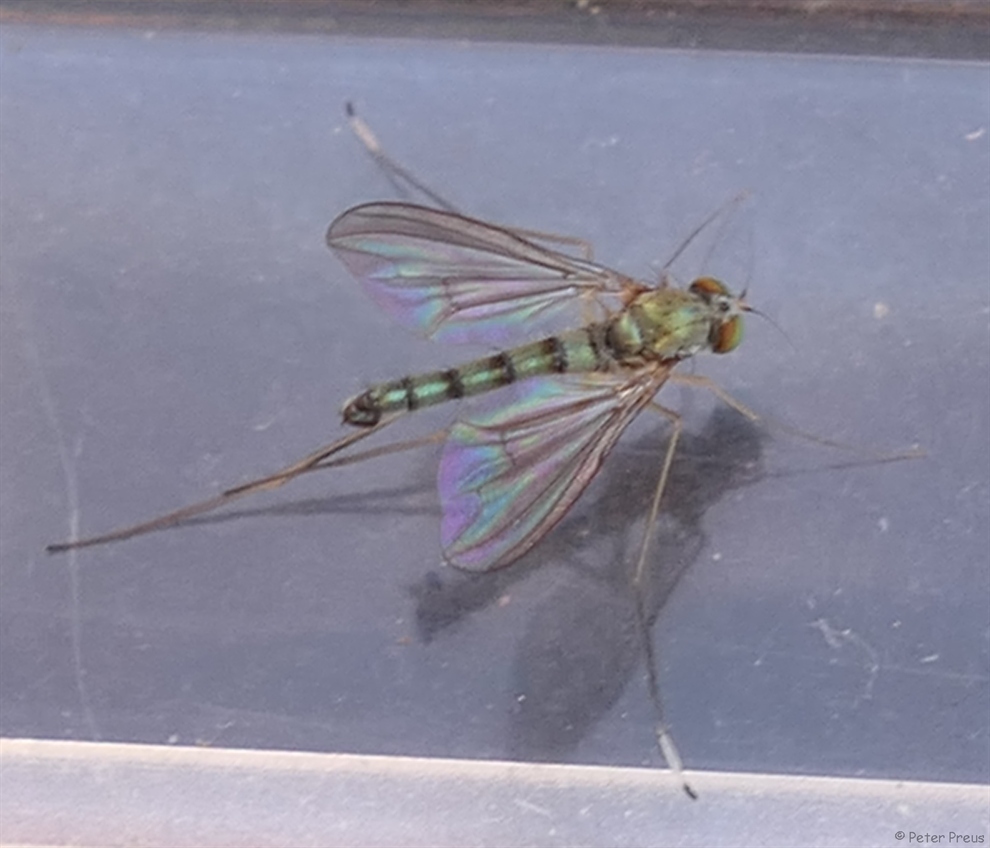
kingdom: Animalia
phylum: Arthropoda
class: Insecta
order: Diptera
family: Dolichopodidae
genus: Sciapus
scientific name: Sciapus platypterus
